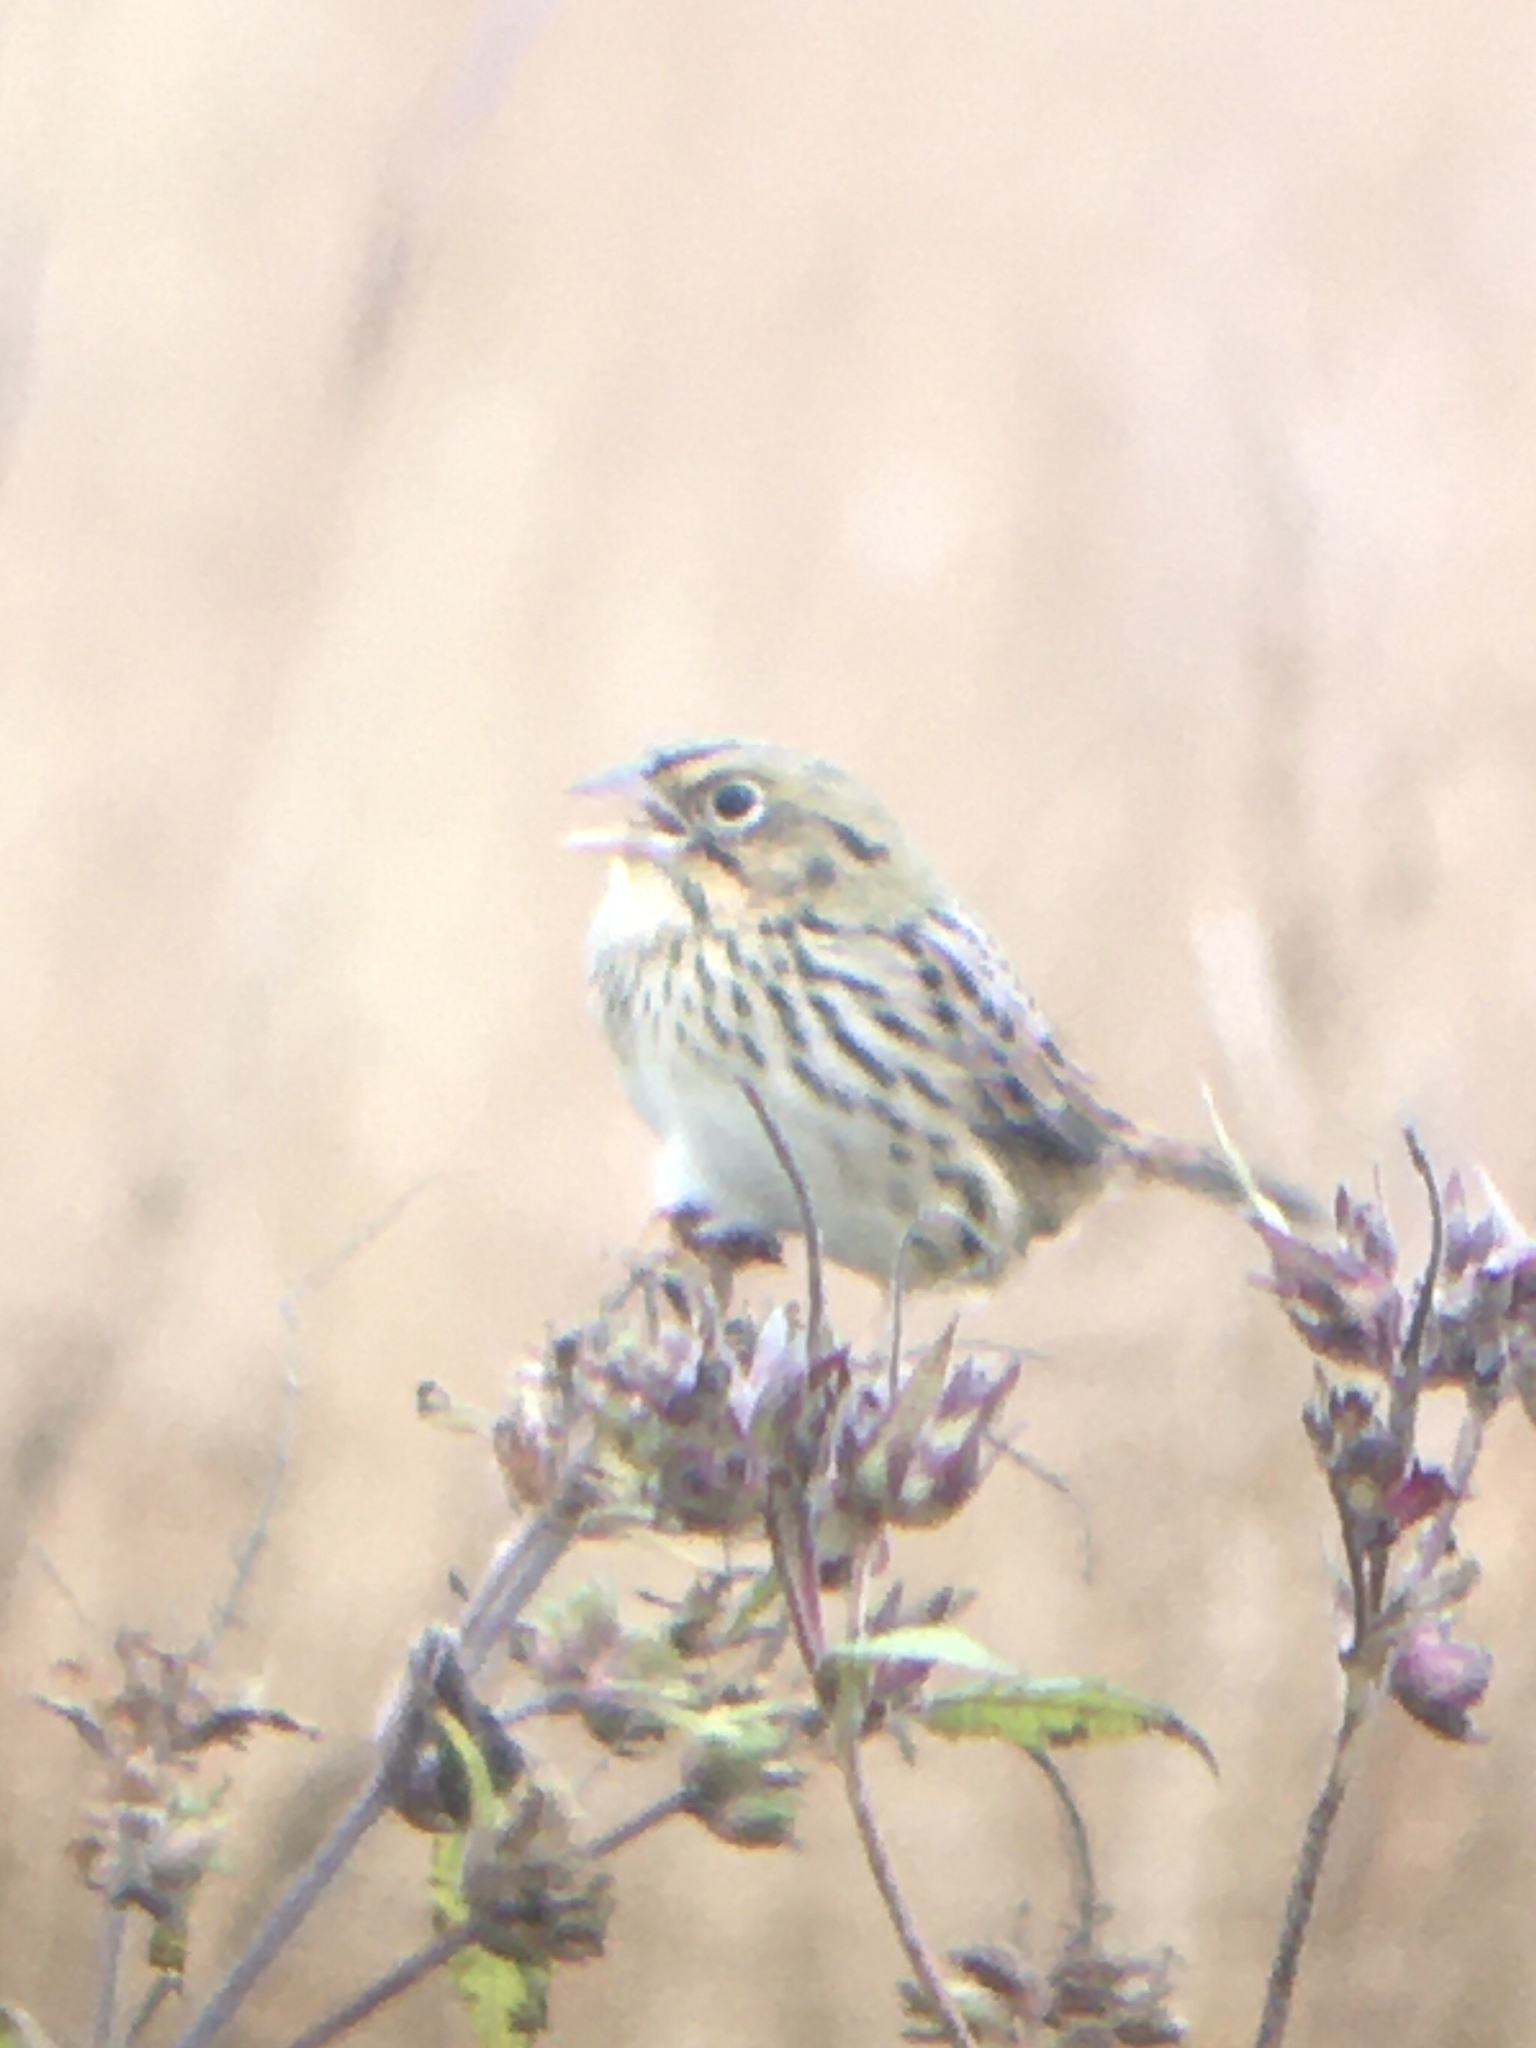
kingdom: Animalia
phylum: Chordata
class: Aves
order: Passeriformes
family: Passerellidae
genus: Centronyx
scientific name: Centronyx henslowii
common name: Henslow's sparrow
